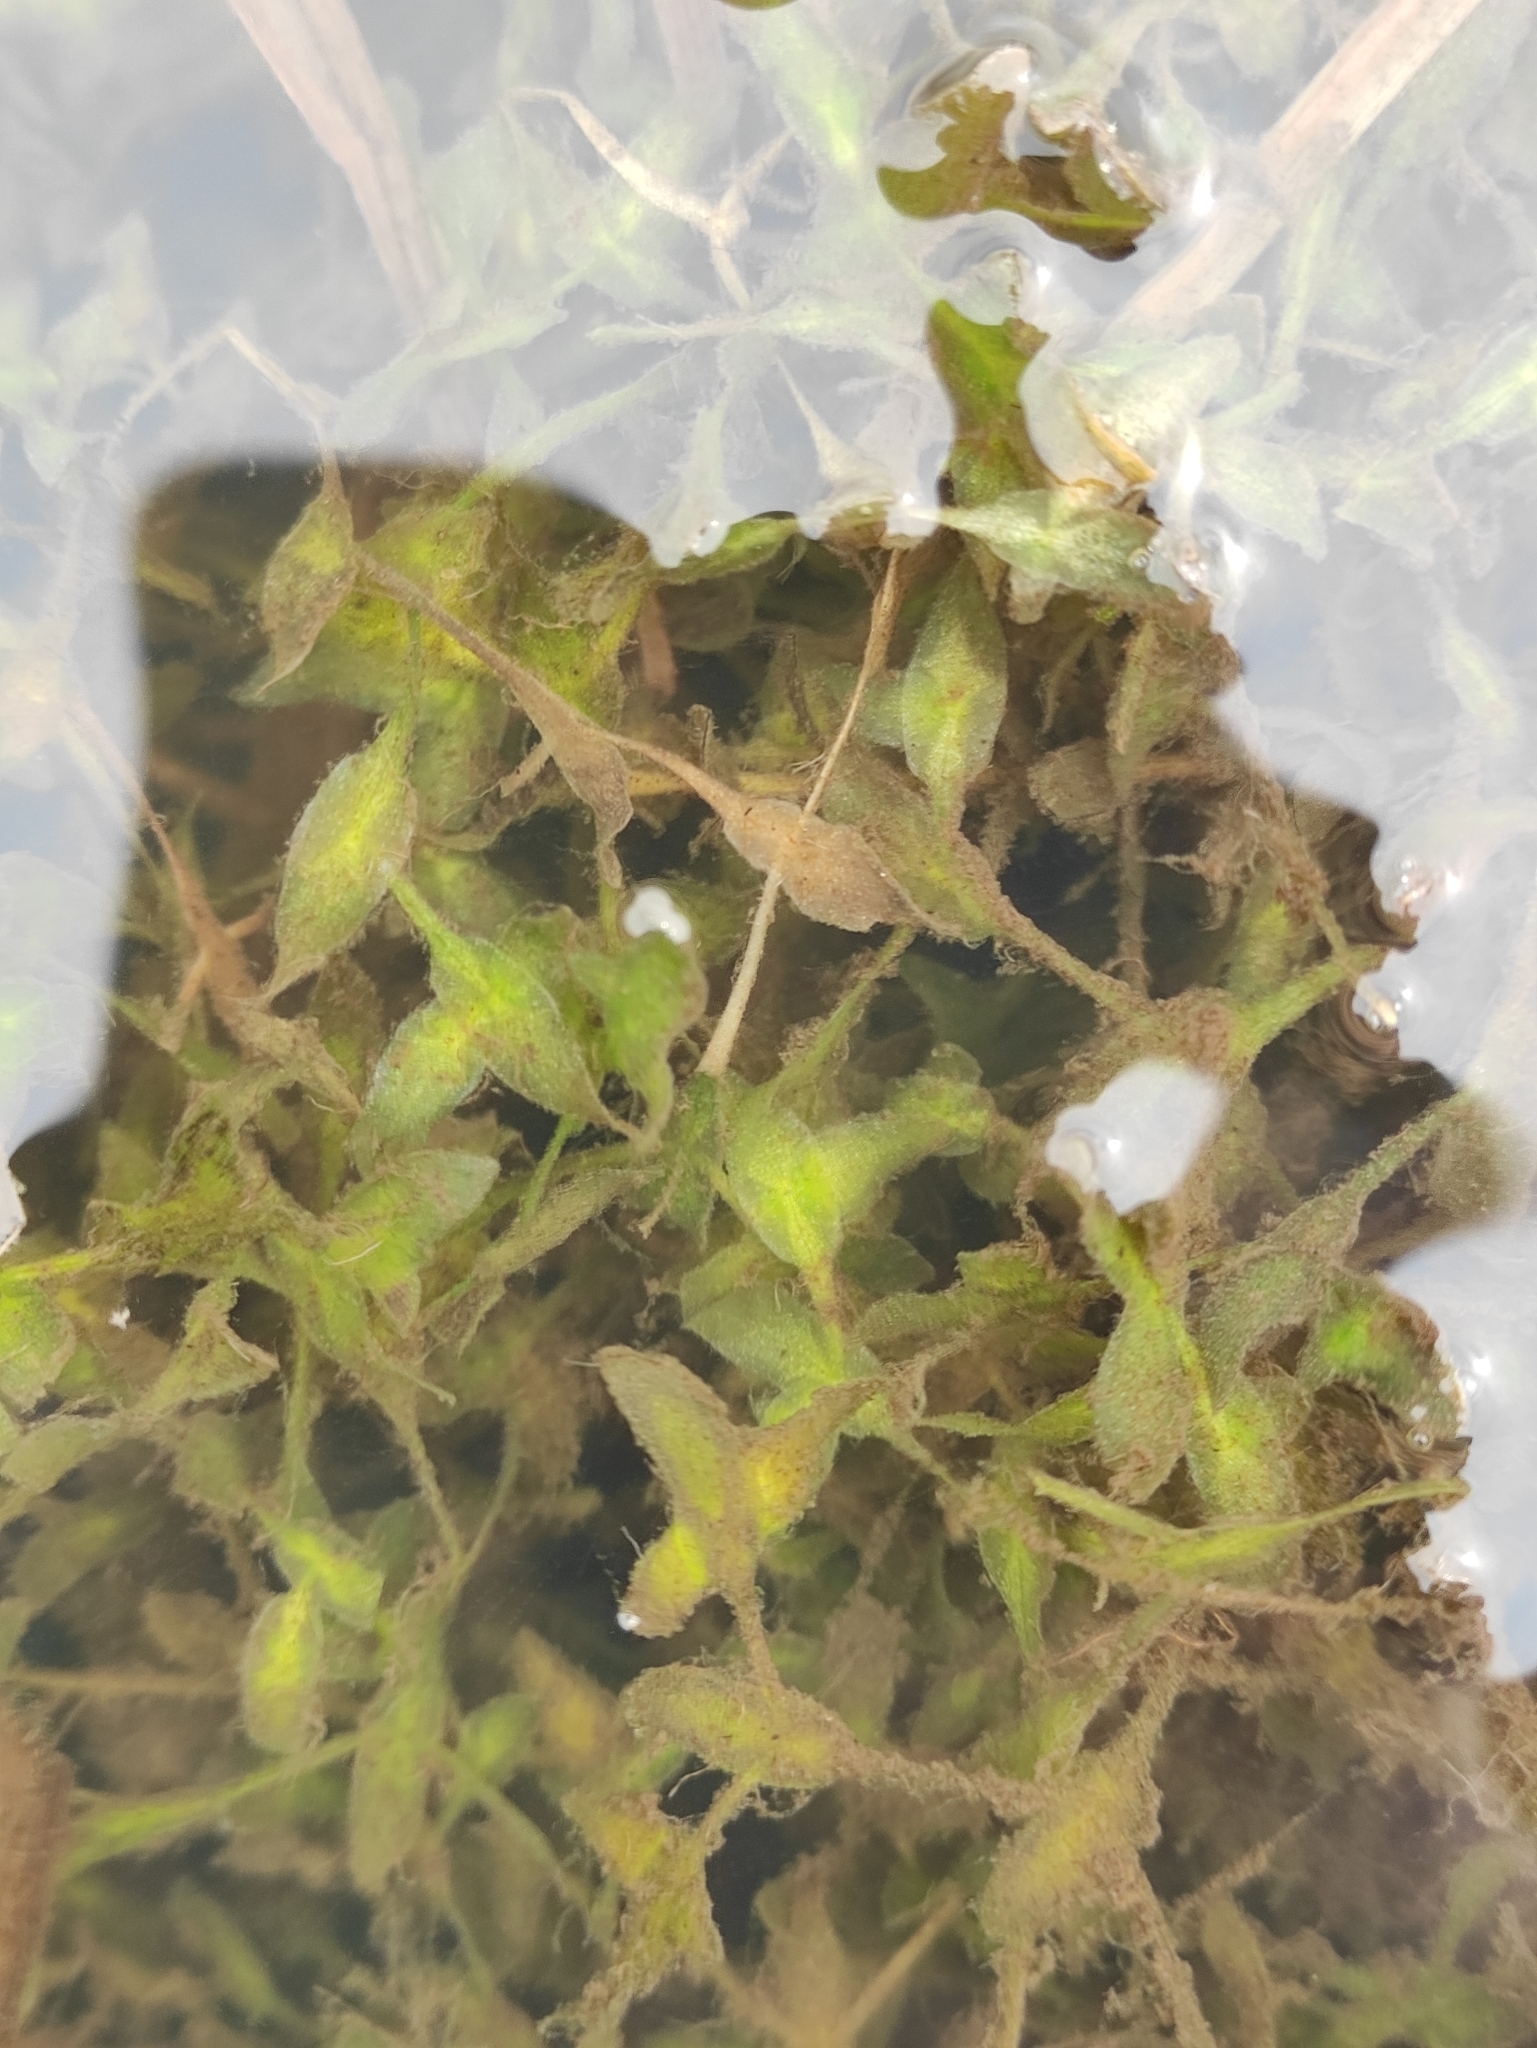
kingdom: Plantae
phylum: Tracheophyta
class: Liliopsida
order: Alismatales
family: Araceae
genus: Lemna
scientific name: Lemna trisulca
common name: Ivy-leaved duckweed
